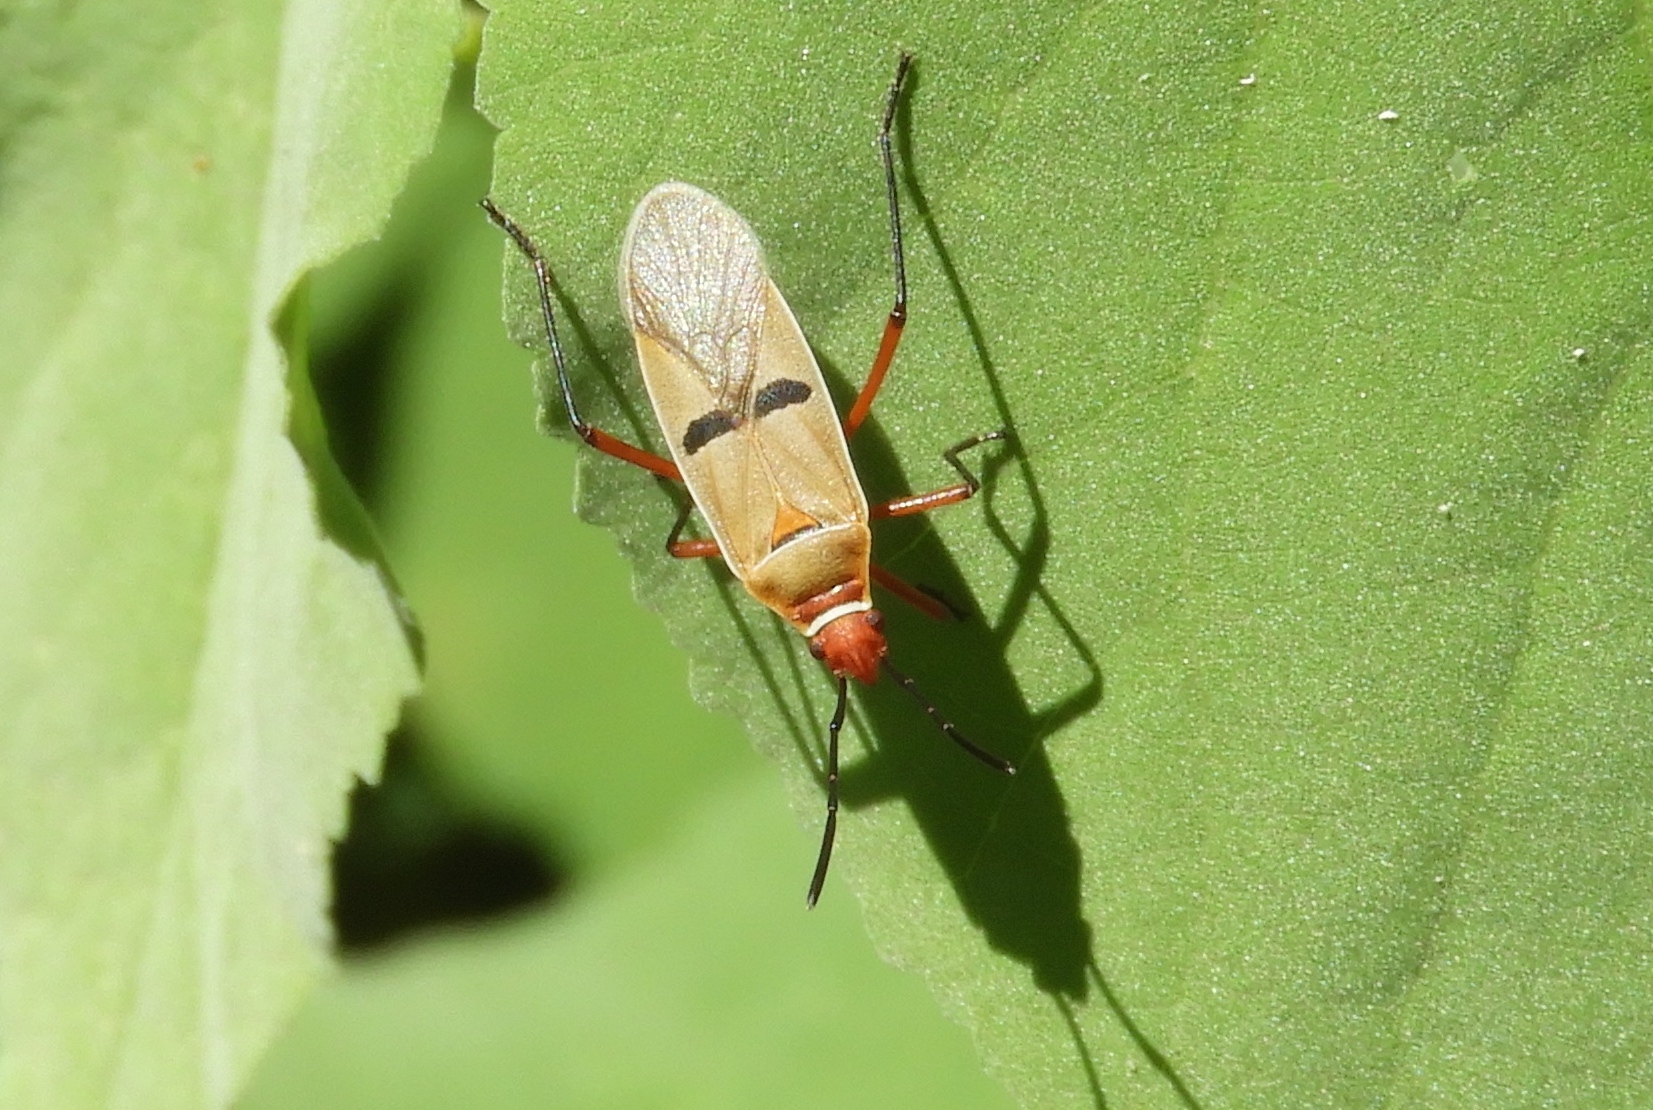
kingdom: Animalia
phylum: Arthropoda
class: Insecta
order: Hemiptera
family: Pyrrhocoridae
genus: Dysdercus
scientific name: Dysdercus
